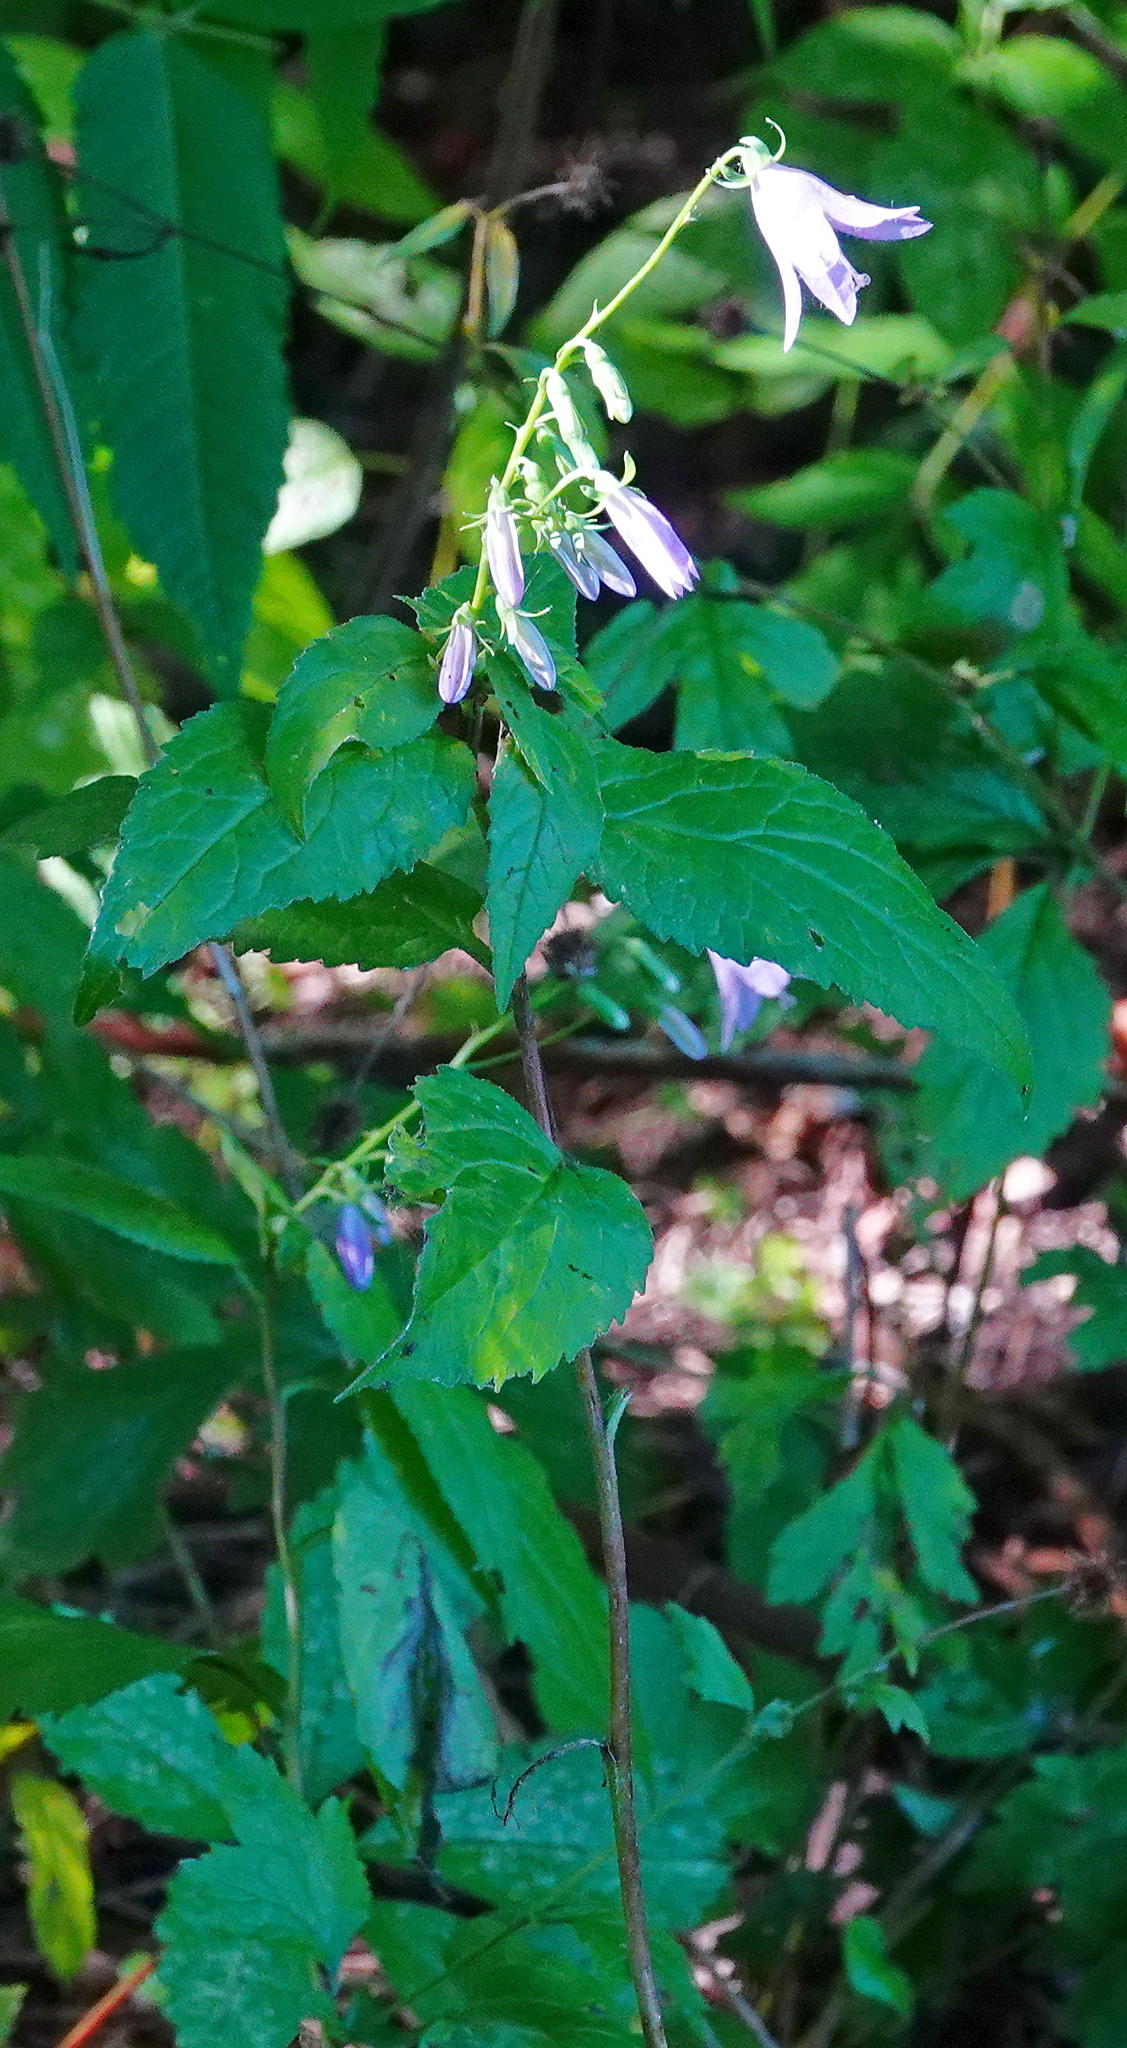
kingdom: Plantae
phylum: Tracheophyta
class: Magnoliopsida
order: Asterales
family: Campanulaceae
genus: Campanula
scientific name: Campanula rapunculoides
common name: Creeping bellflower
